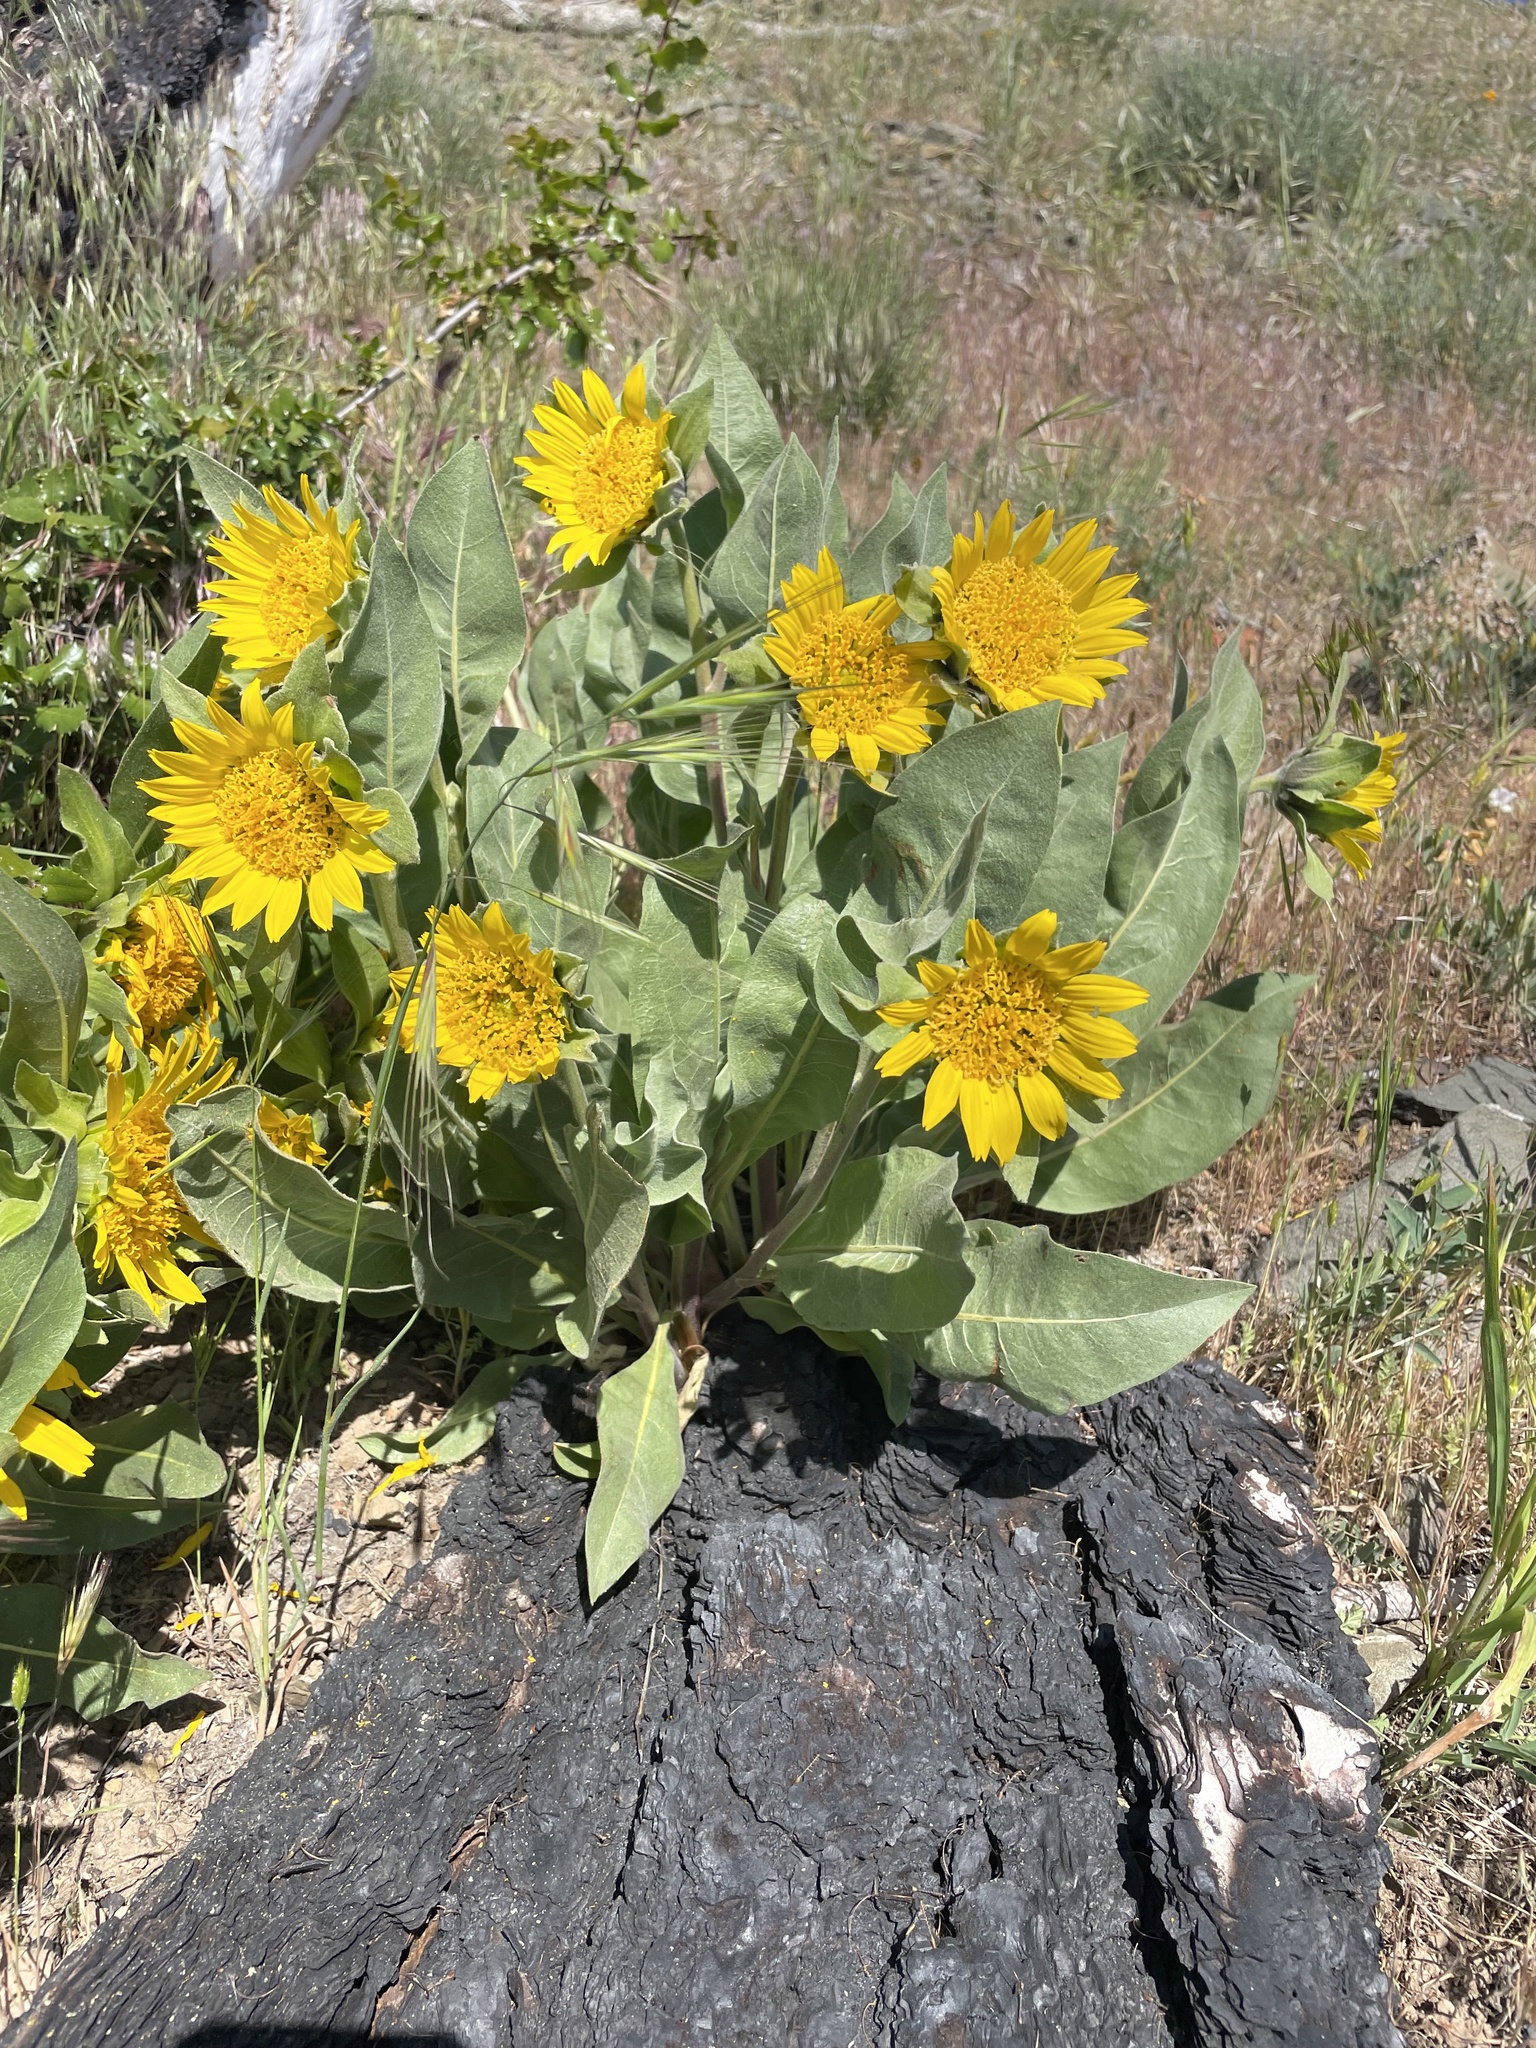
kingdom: Plantae
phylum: Tracheophyta
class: Magnoliopsida
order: Asterales
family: Asteraceae
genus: Wyethia
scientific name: Wyethia helenioides
